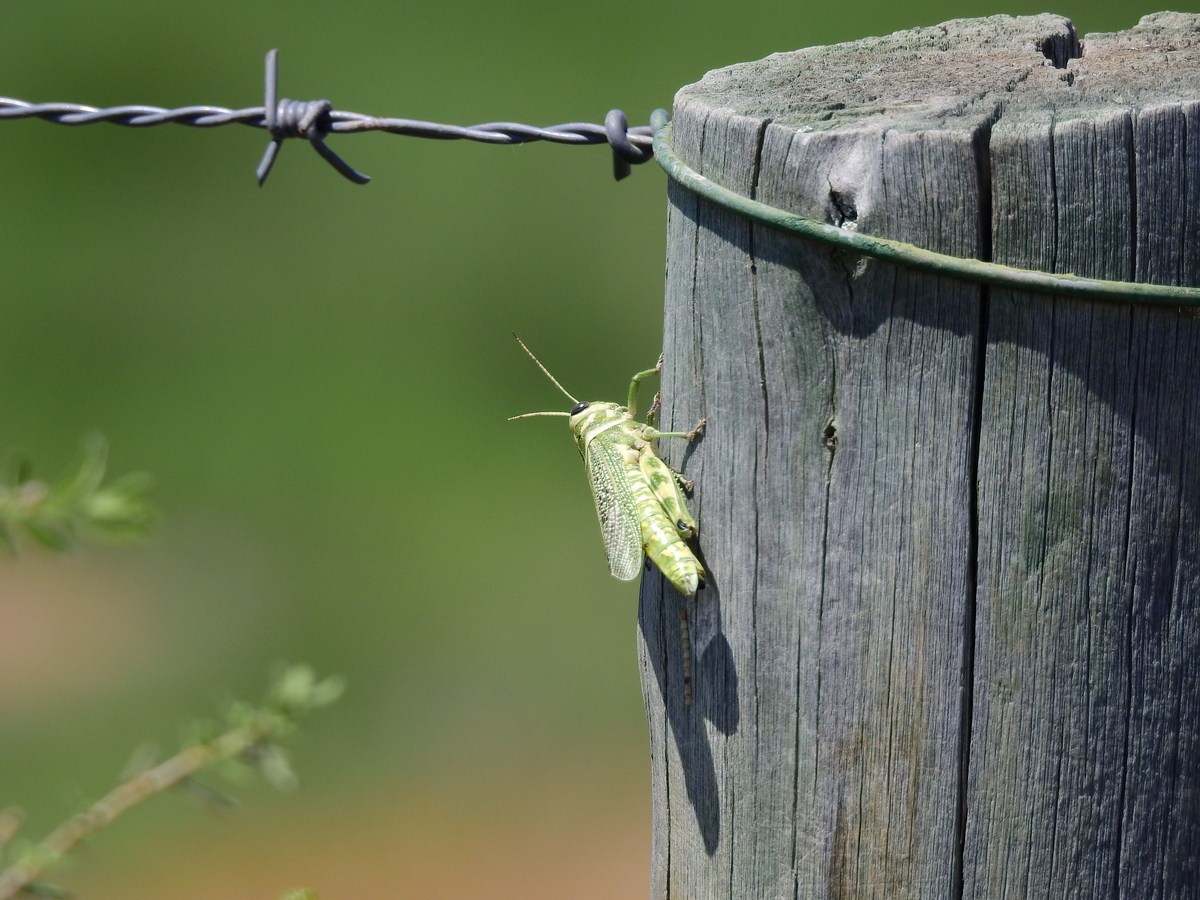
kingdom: Animalia
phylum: Arthropoda
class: Insecta
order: Orthoptera
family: Romaleidae
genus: Diponthus
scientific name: Diponthus argentinus
